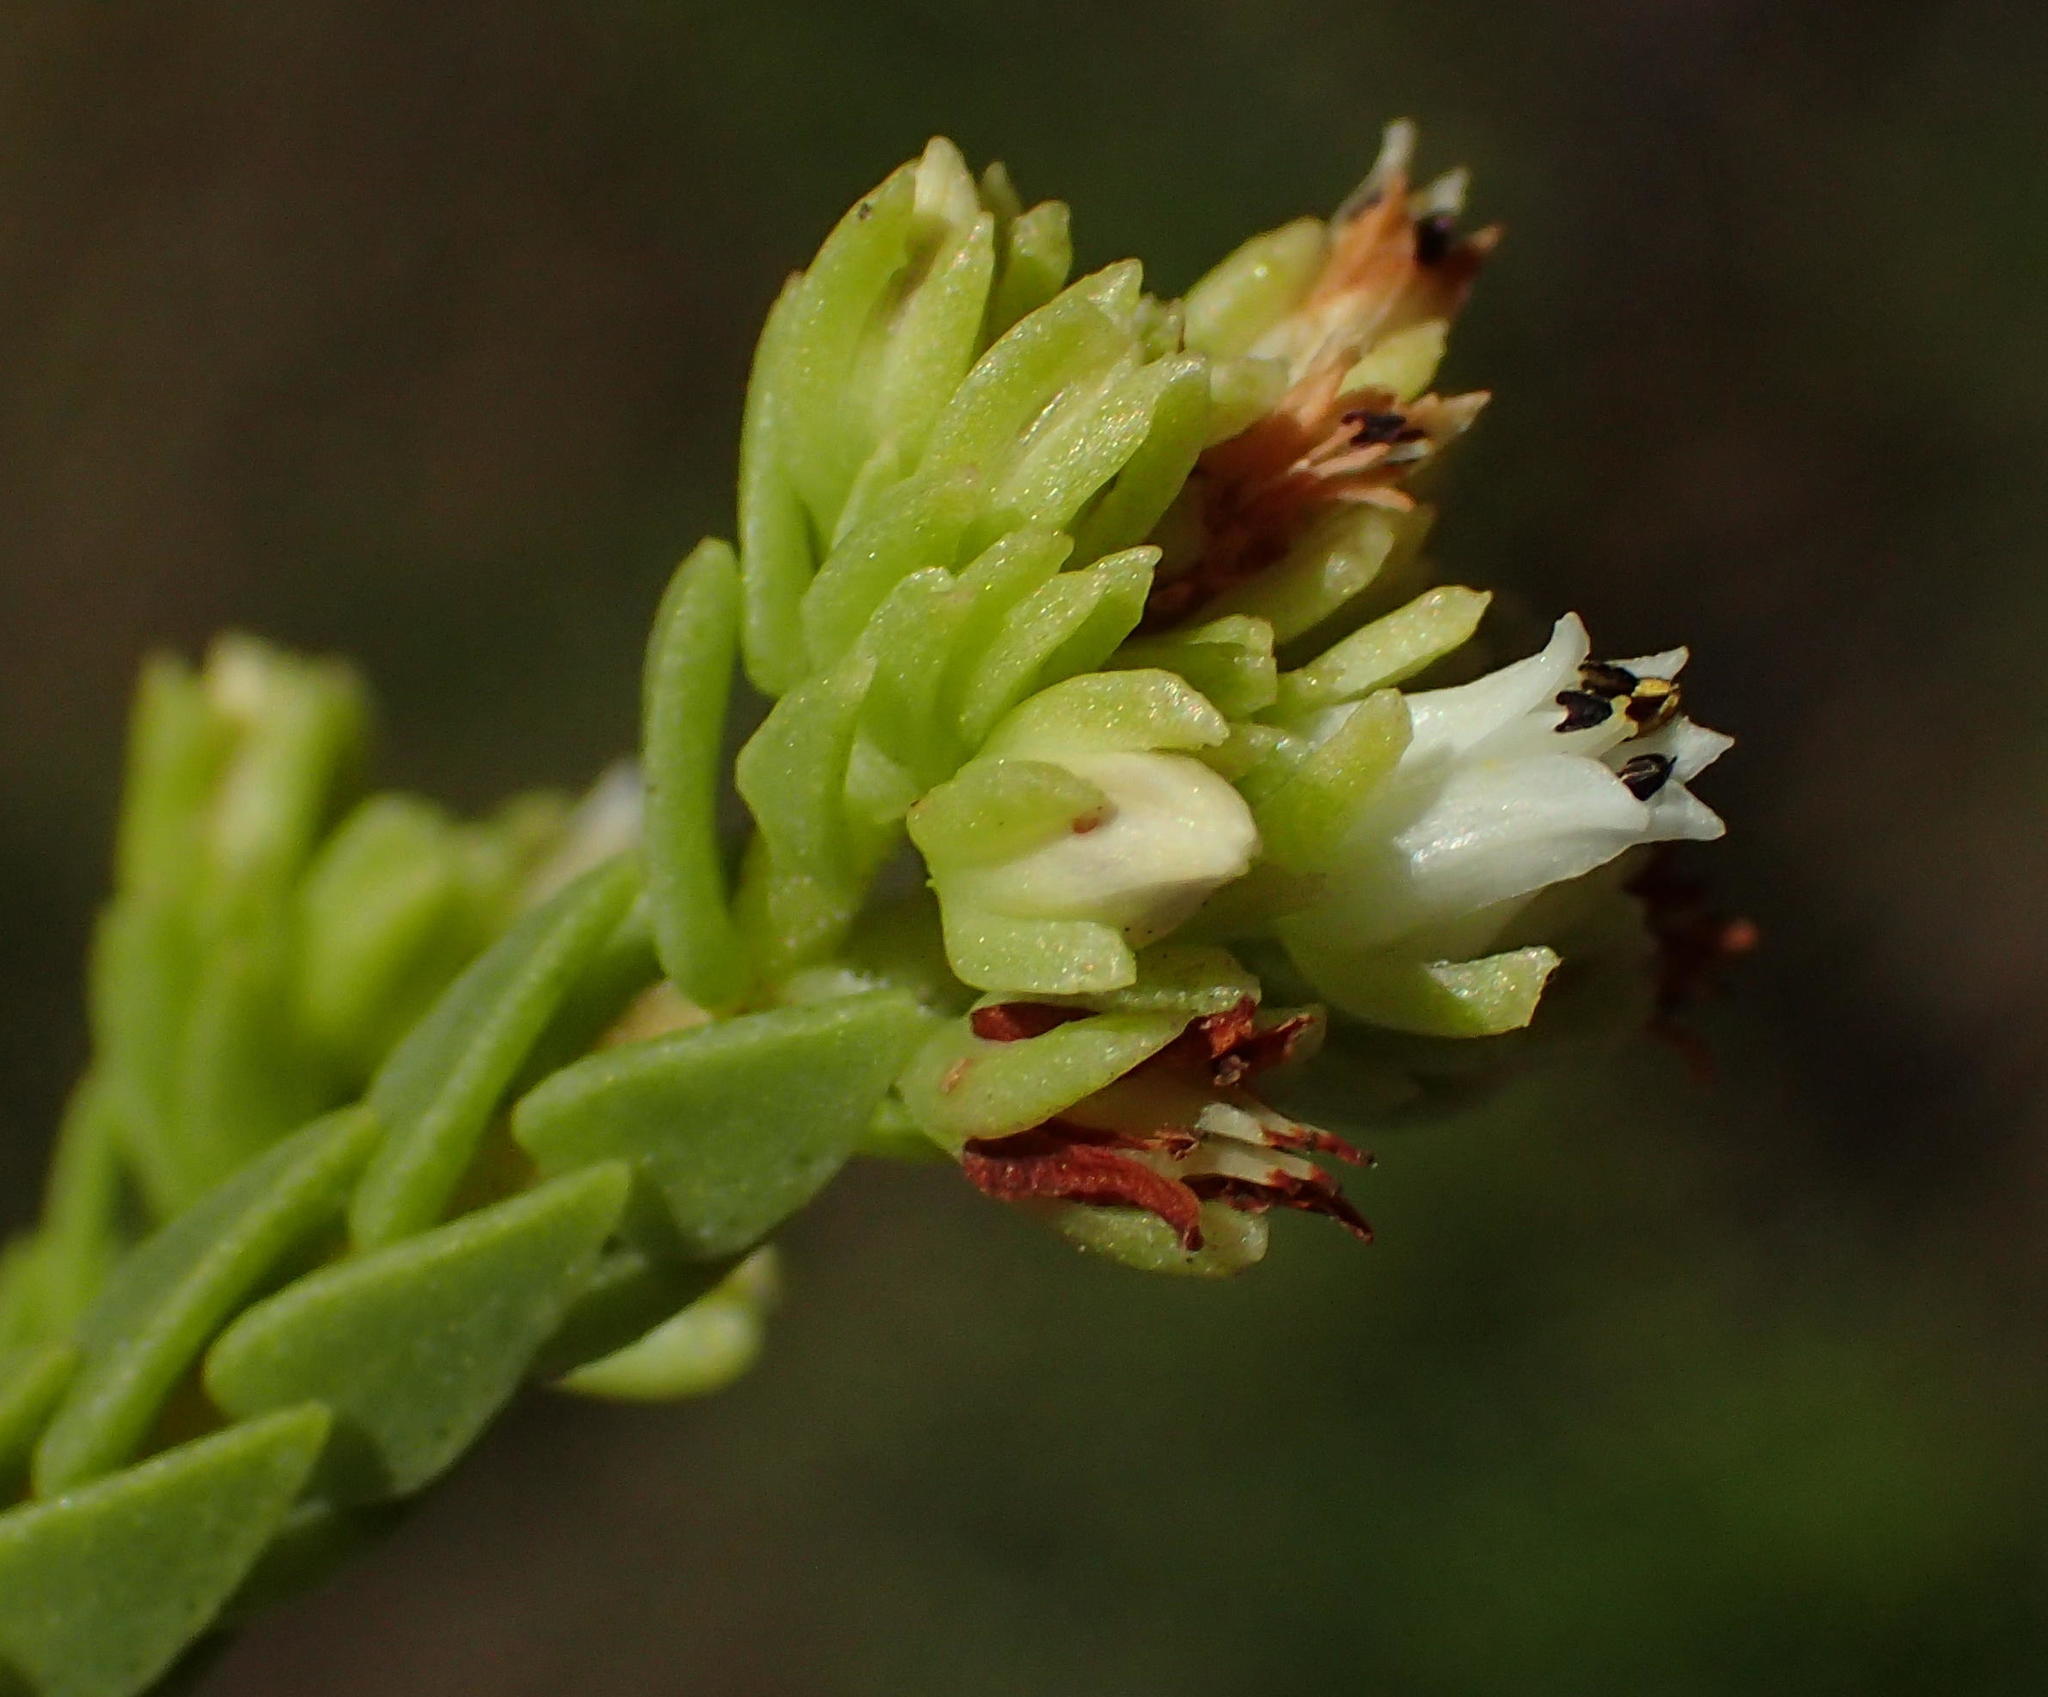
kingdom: Plantae
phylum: Tracheophyta
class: Magnoliopsida
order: Saxifragales
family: Crassulaceae
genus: Crassula
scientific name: Crassula ericoides
